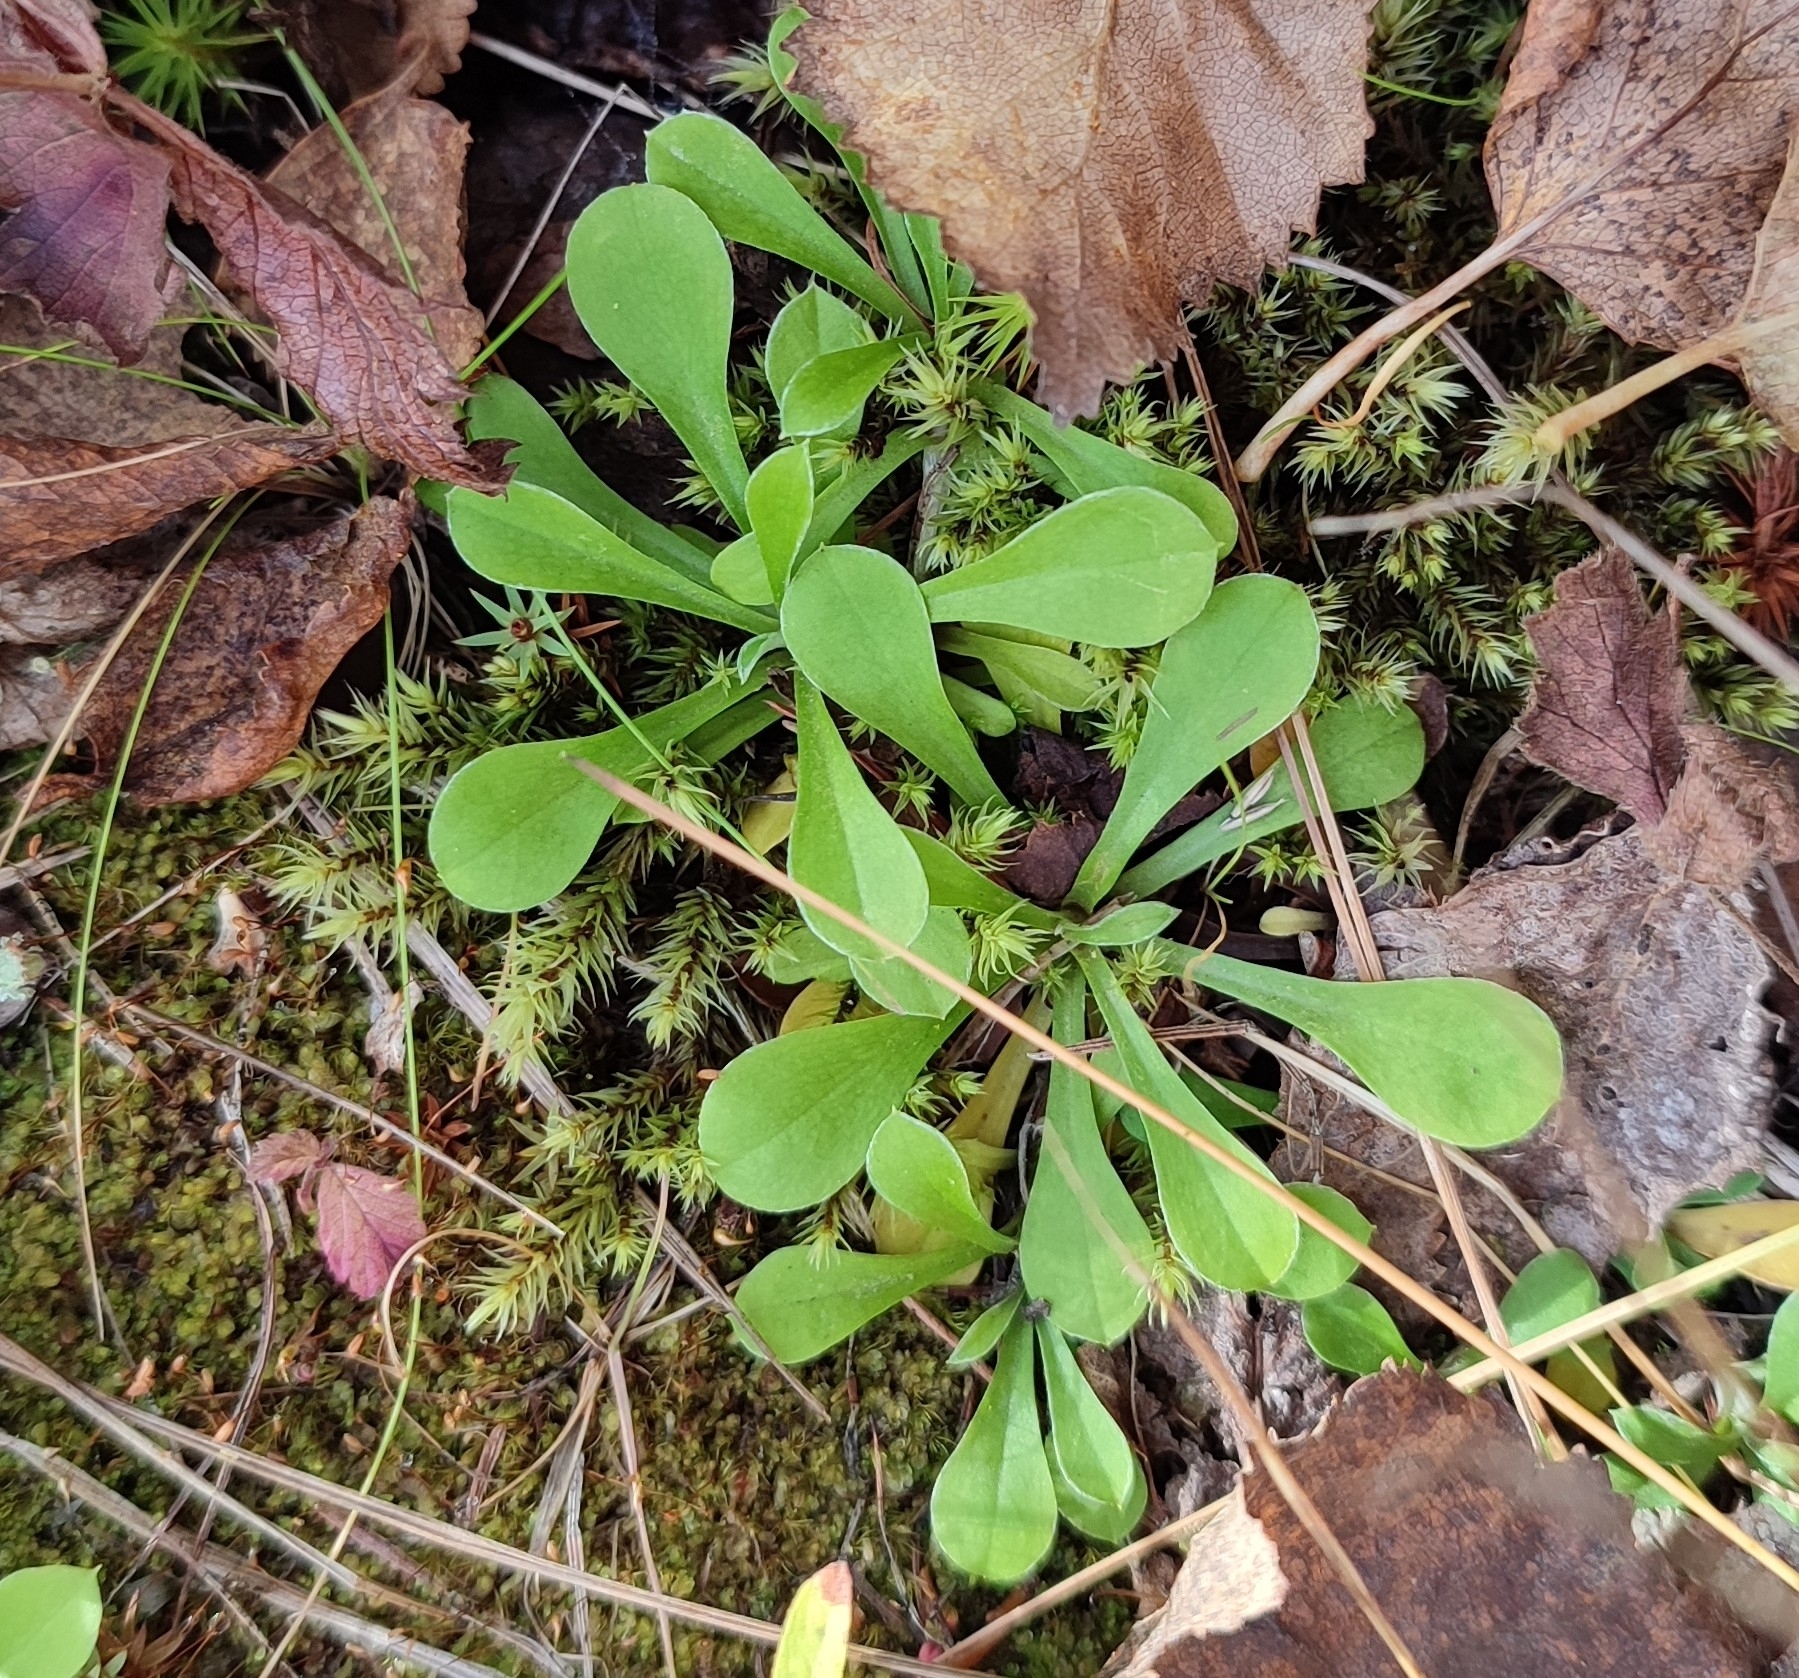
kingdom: Plantae
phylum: Tracheophyta
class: Magnoliopsida
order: Asterales
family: Asteraceae
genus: Antennaria
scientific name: Antennaria dioica
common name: Mountain everlasting
